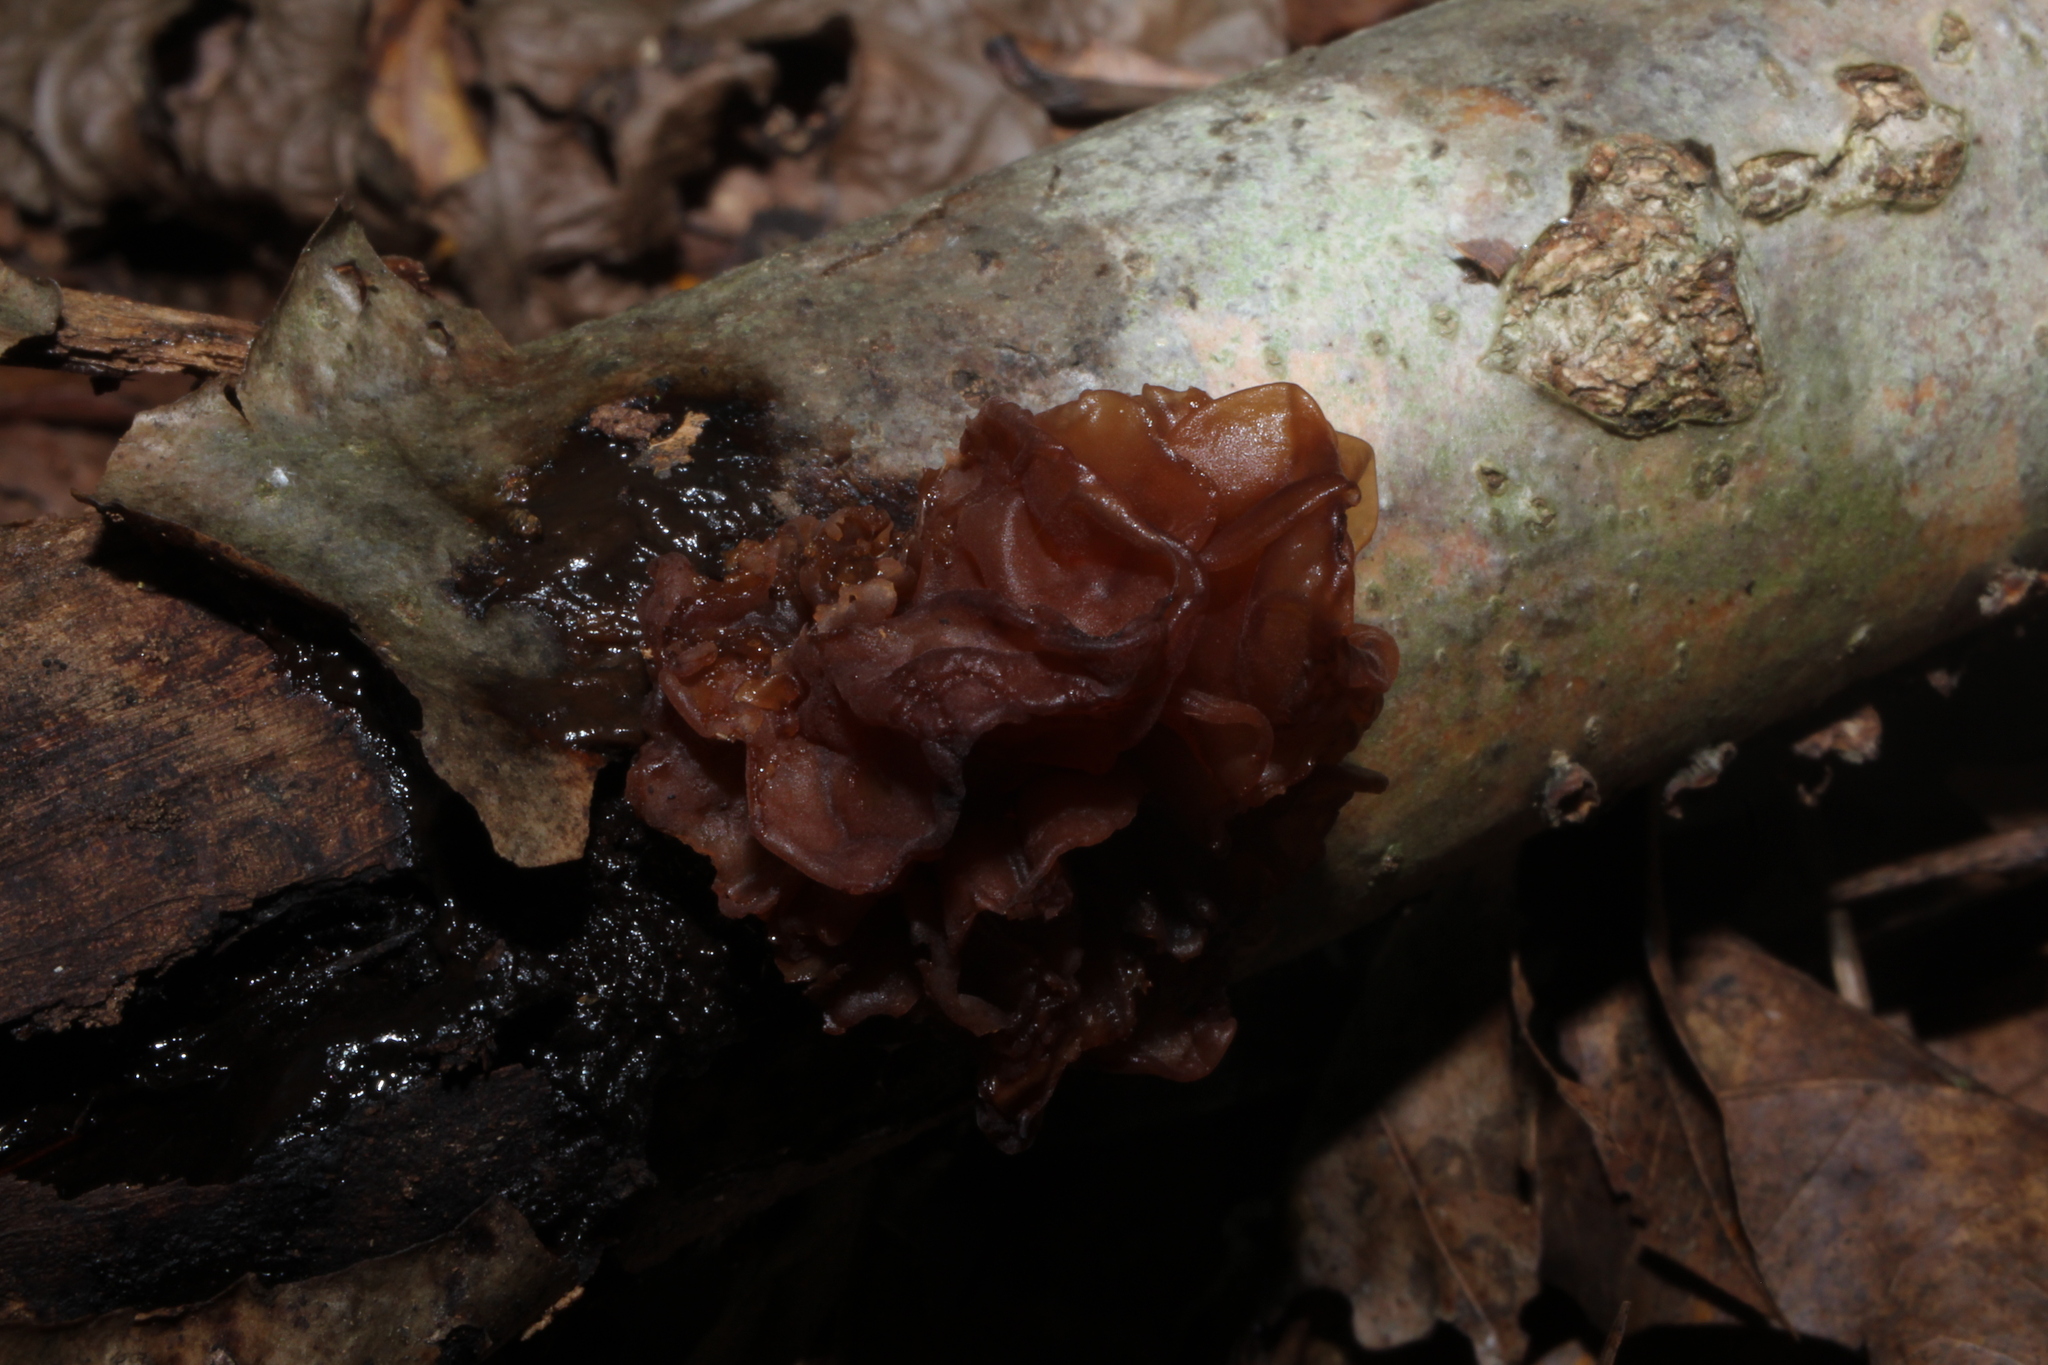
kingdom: Fungi
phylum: Basidiomycota
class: Tremellomycetes
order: Tremellales
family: Tremellaceae
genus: Phaeotremella
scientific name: Phaeotremella foliacea
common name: Leafy brain
